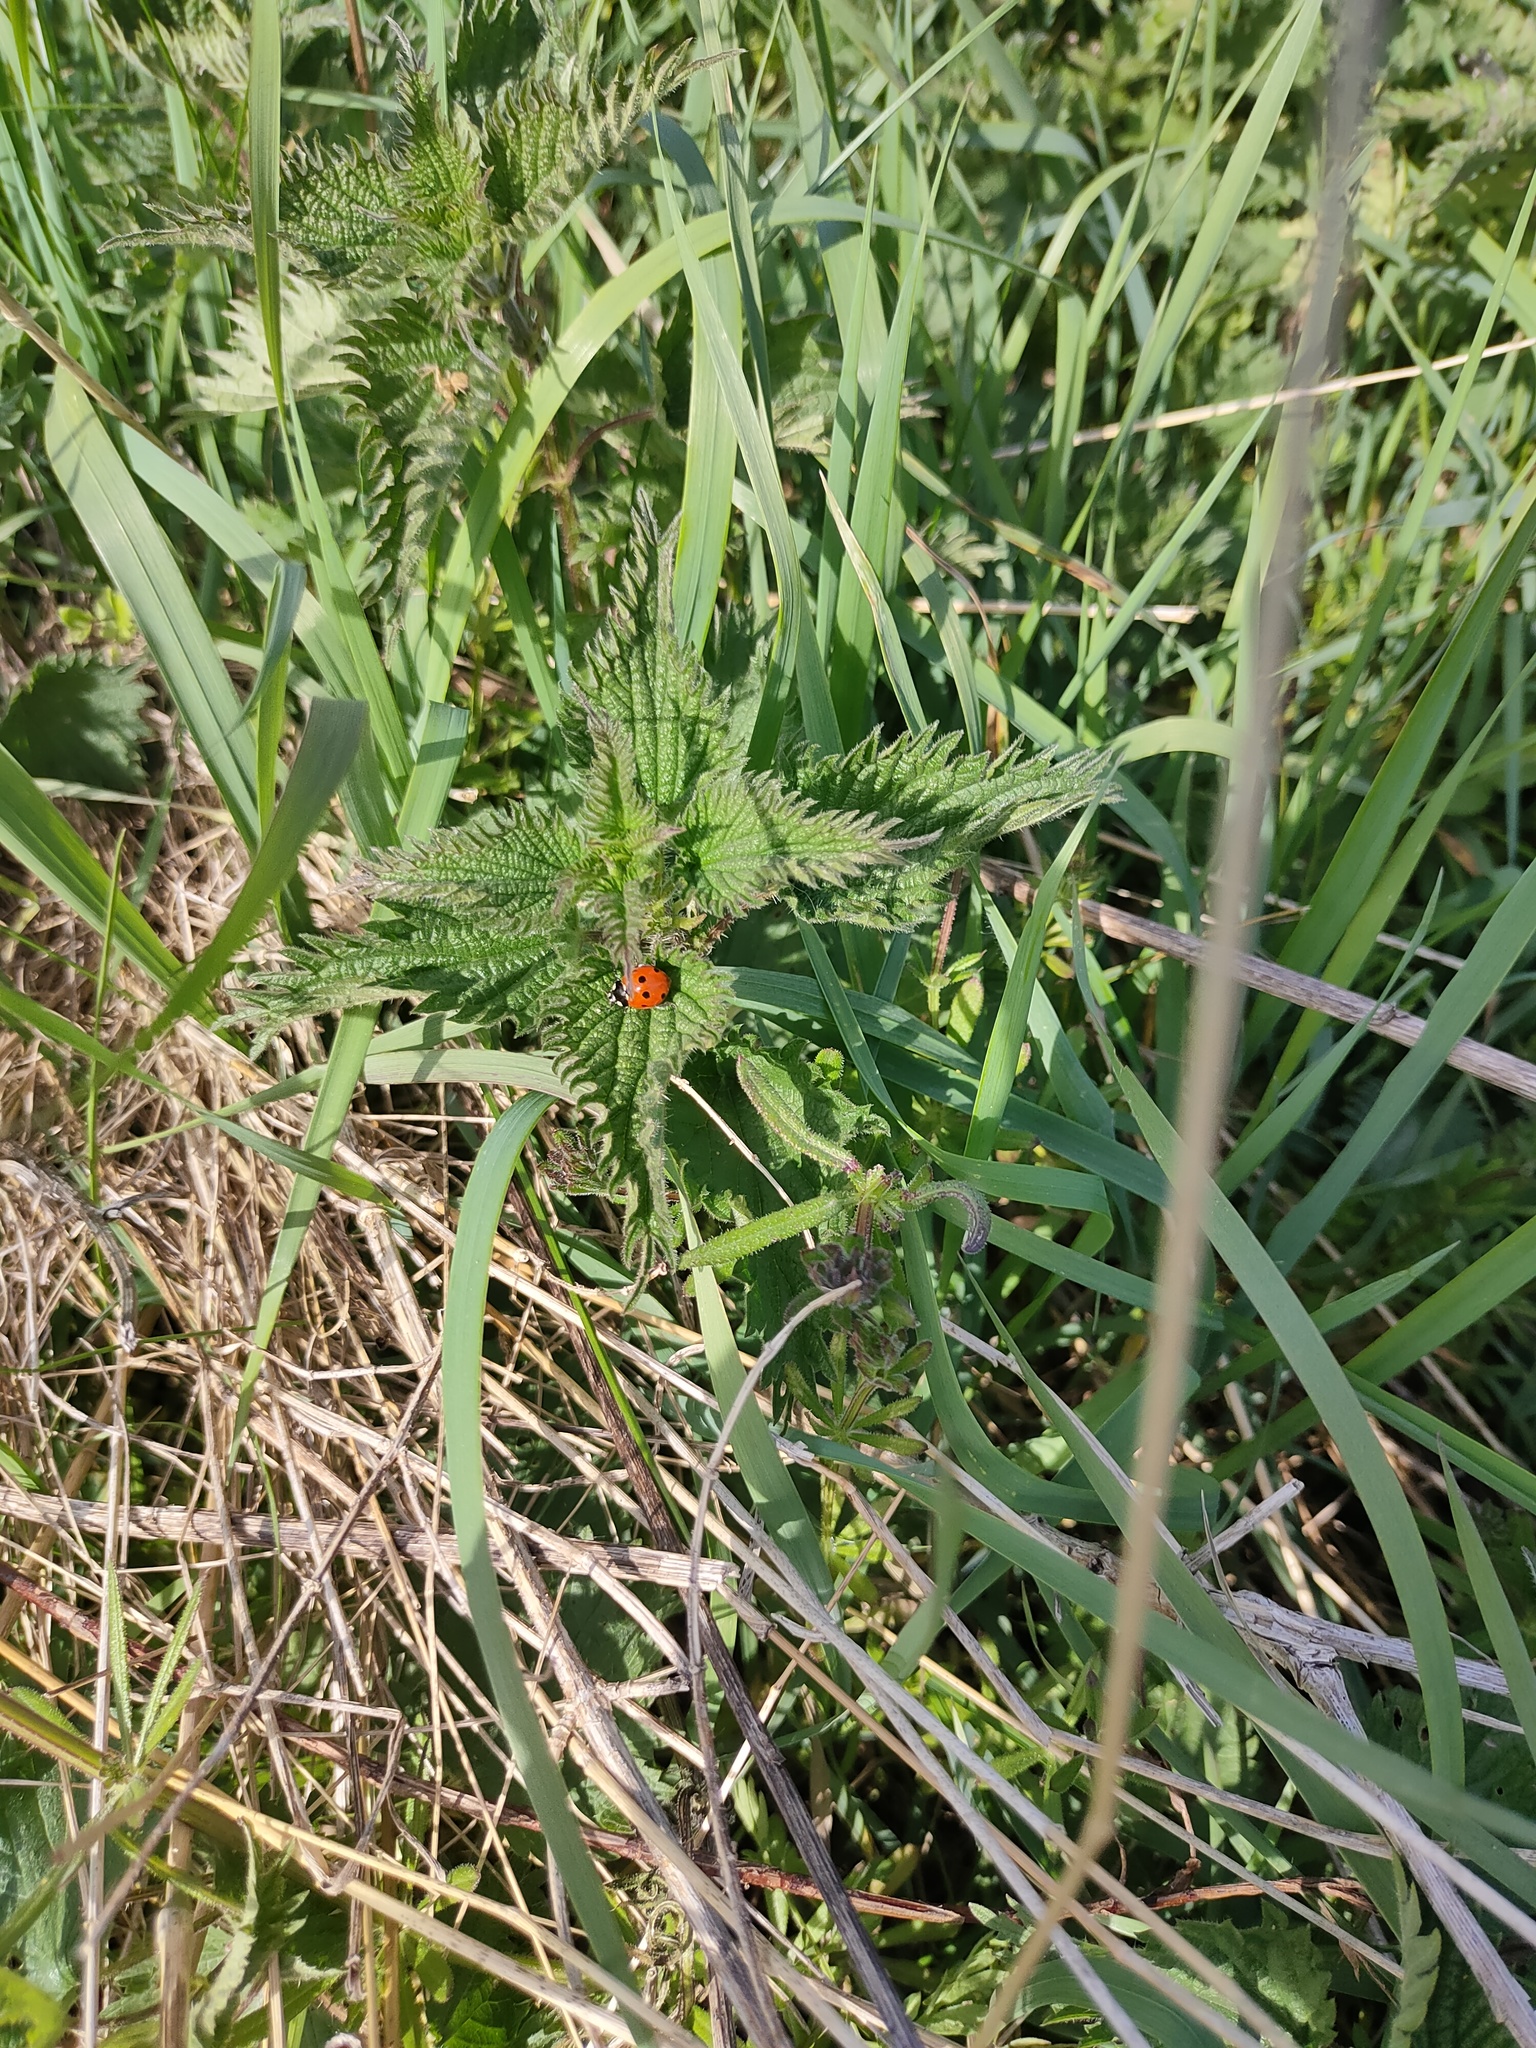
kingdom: Animalia
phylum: Arthropoda
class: Insecta
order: Coleoptera
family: Coccinellidae
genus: Coccinella
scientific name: Coccinella septempunctata
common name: Sevenspotted lady beetle
